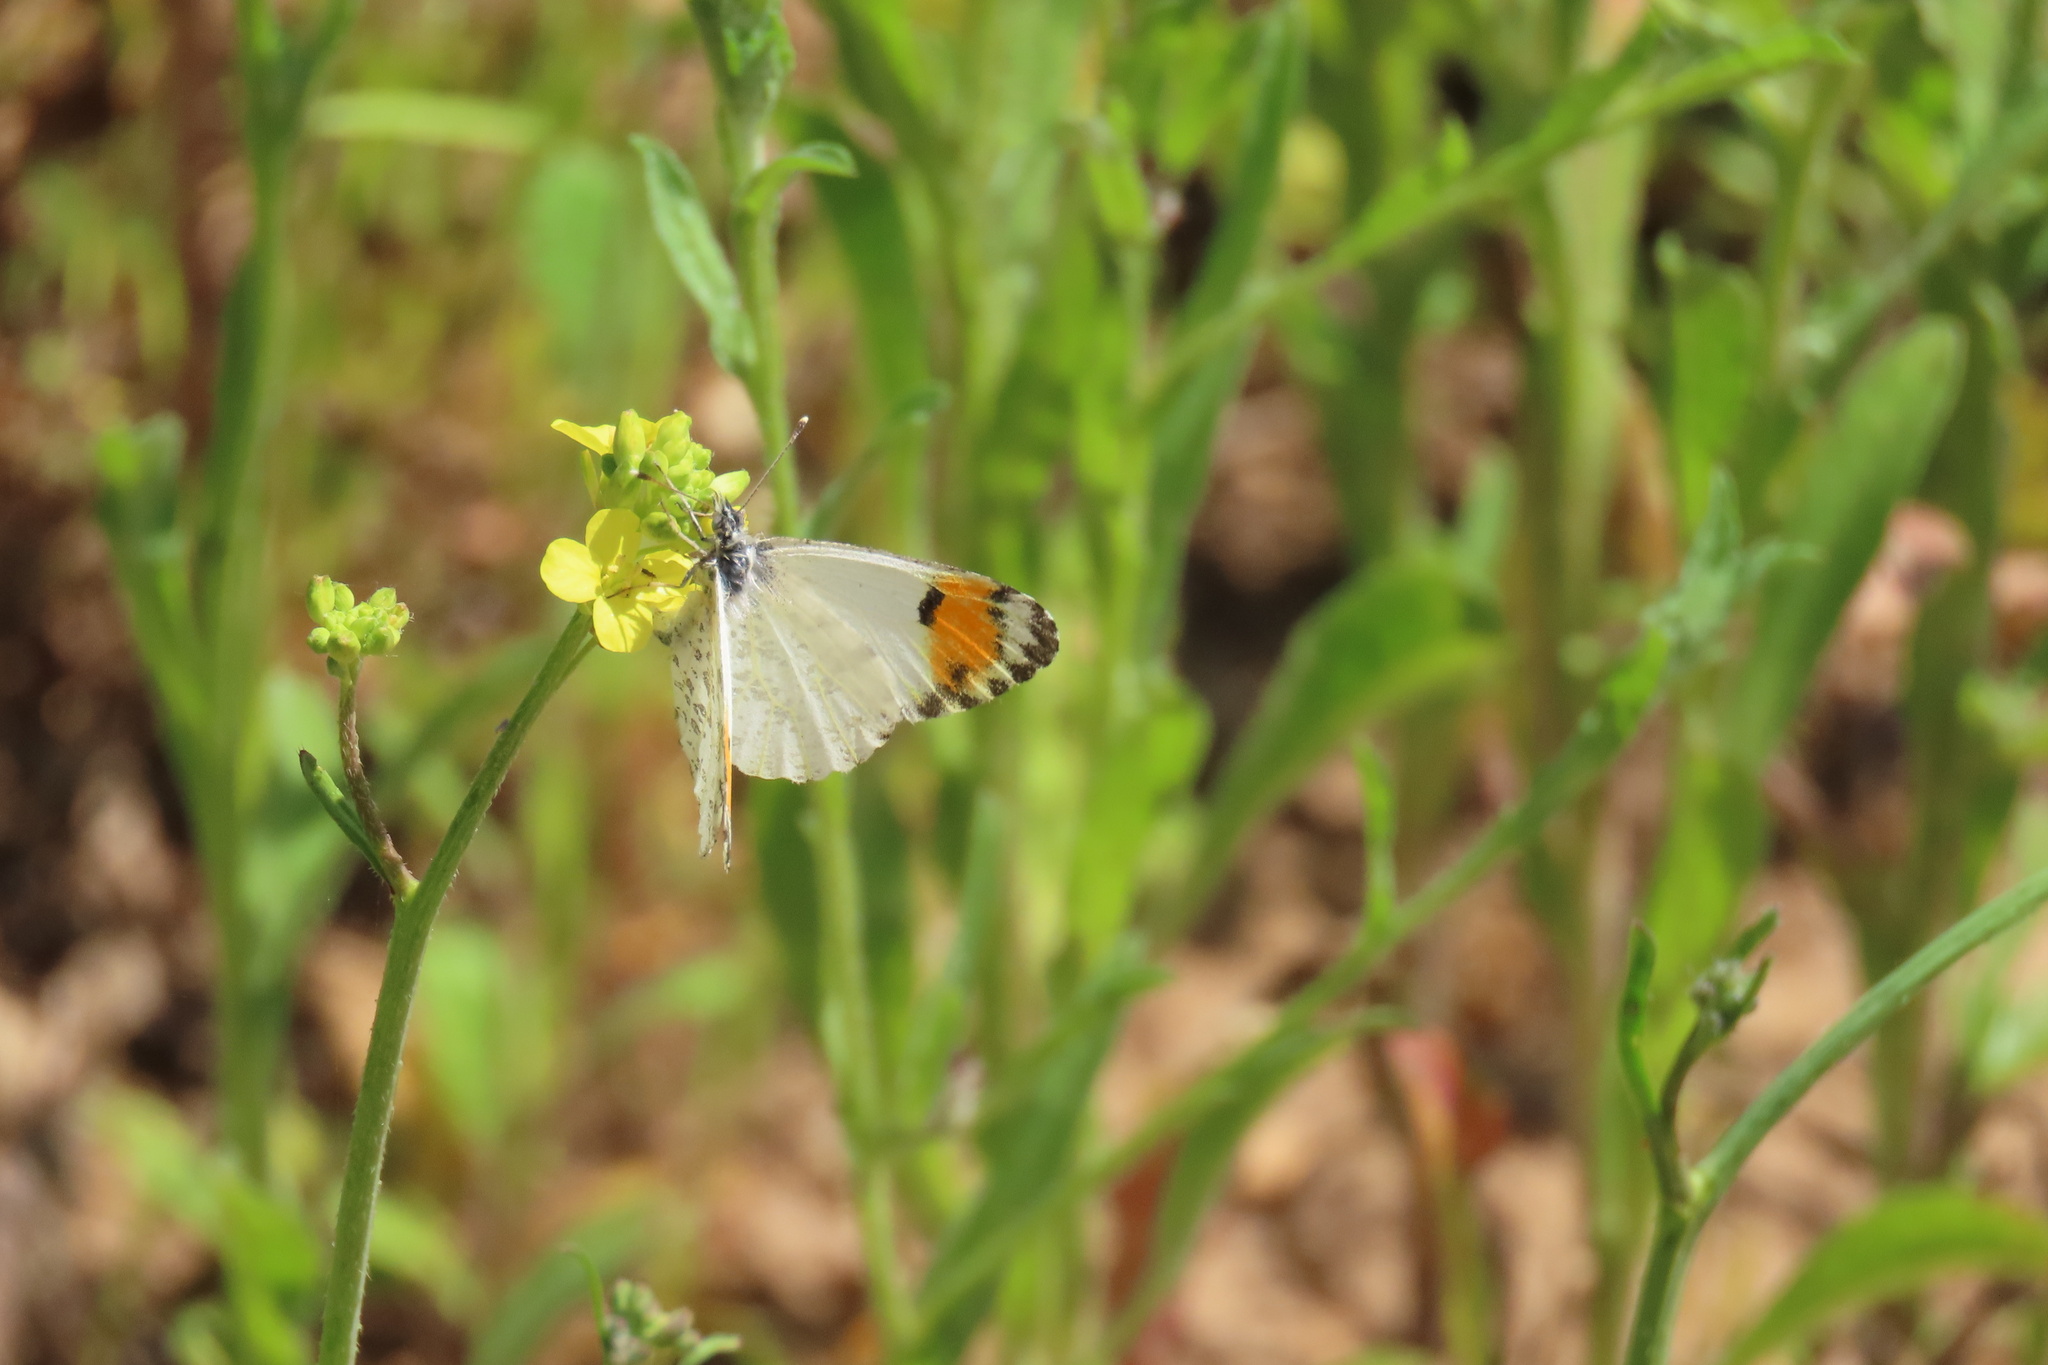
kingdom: Animalia
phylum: Arthropoda
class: Insecta
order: Lepidoptera
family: Pieridae
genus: Anthocharis
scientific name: Anthocharis sara
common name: Sara's orangetip
